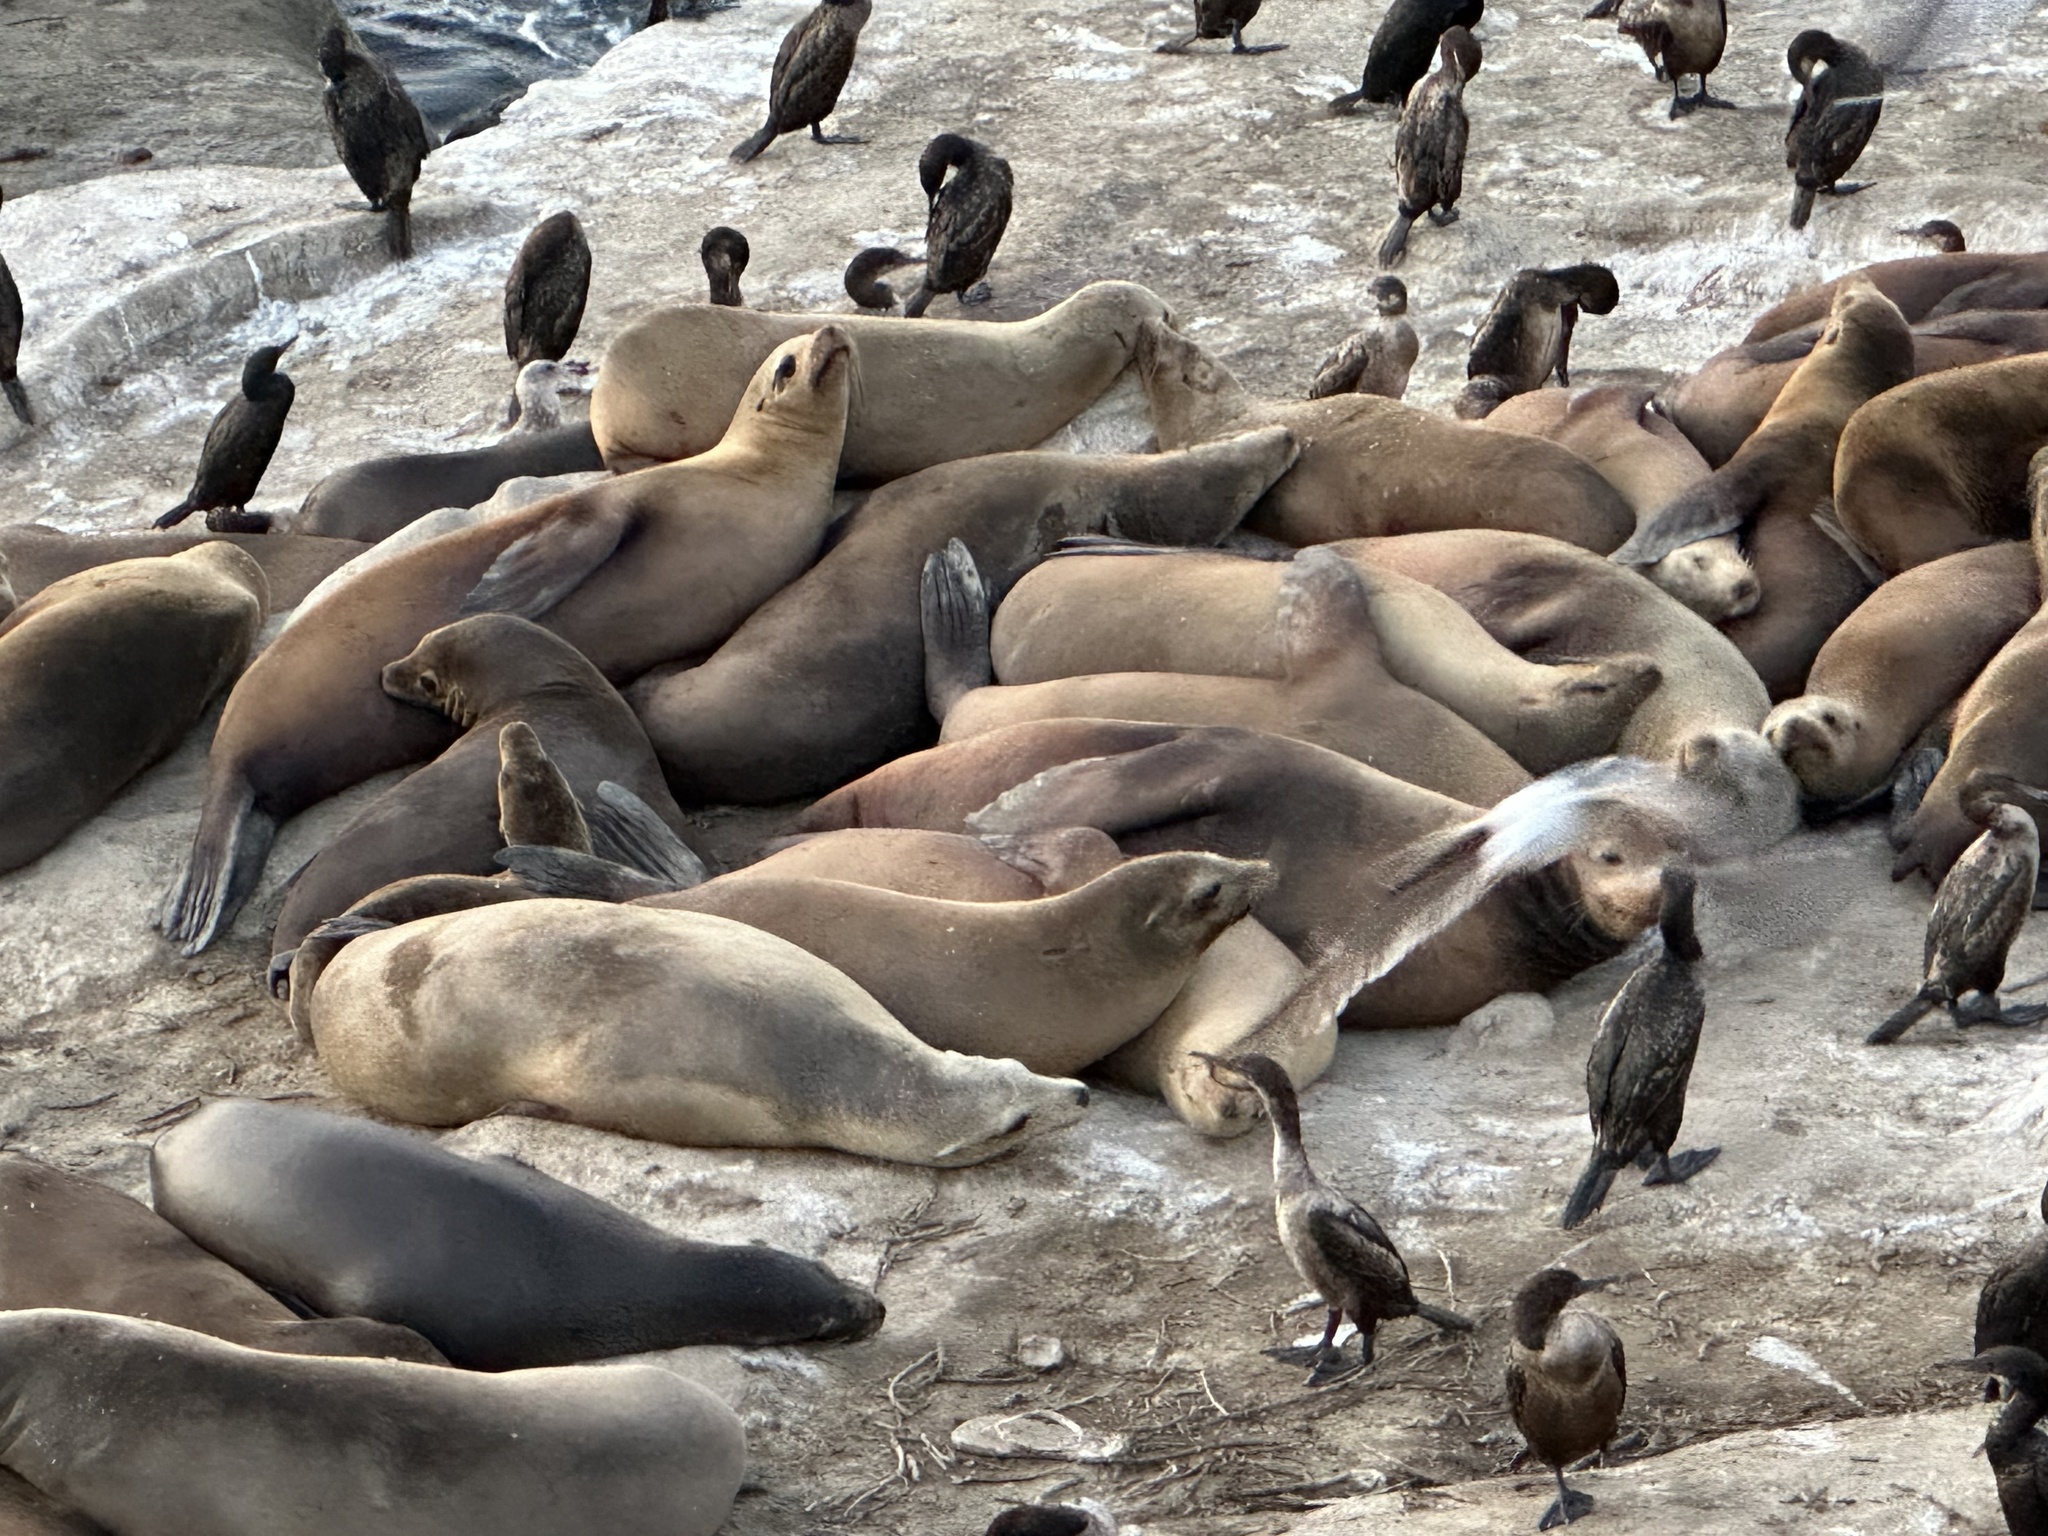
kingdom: Animalia
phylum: Chordata
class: Mammalia
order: Carnivora
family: Otariidae
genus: Zalophus
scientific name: Zalophus californianus
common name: California sea lion
